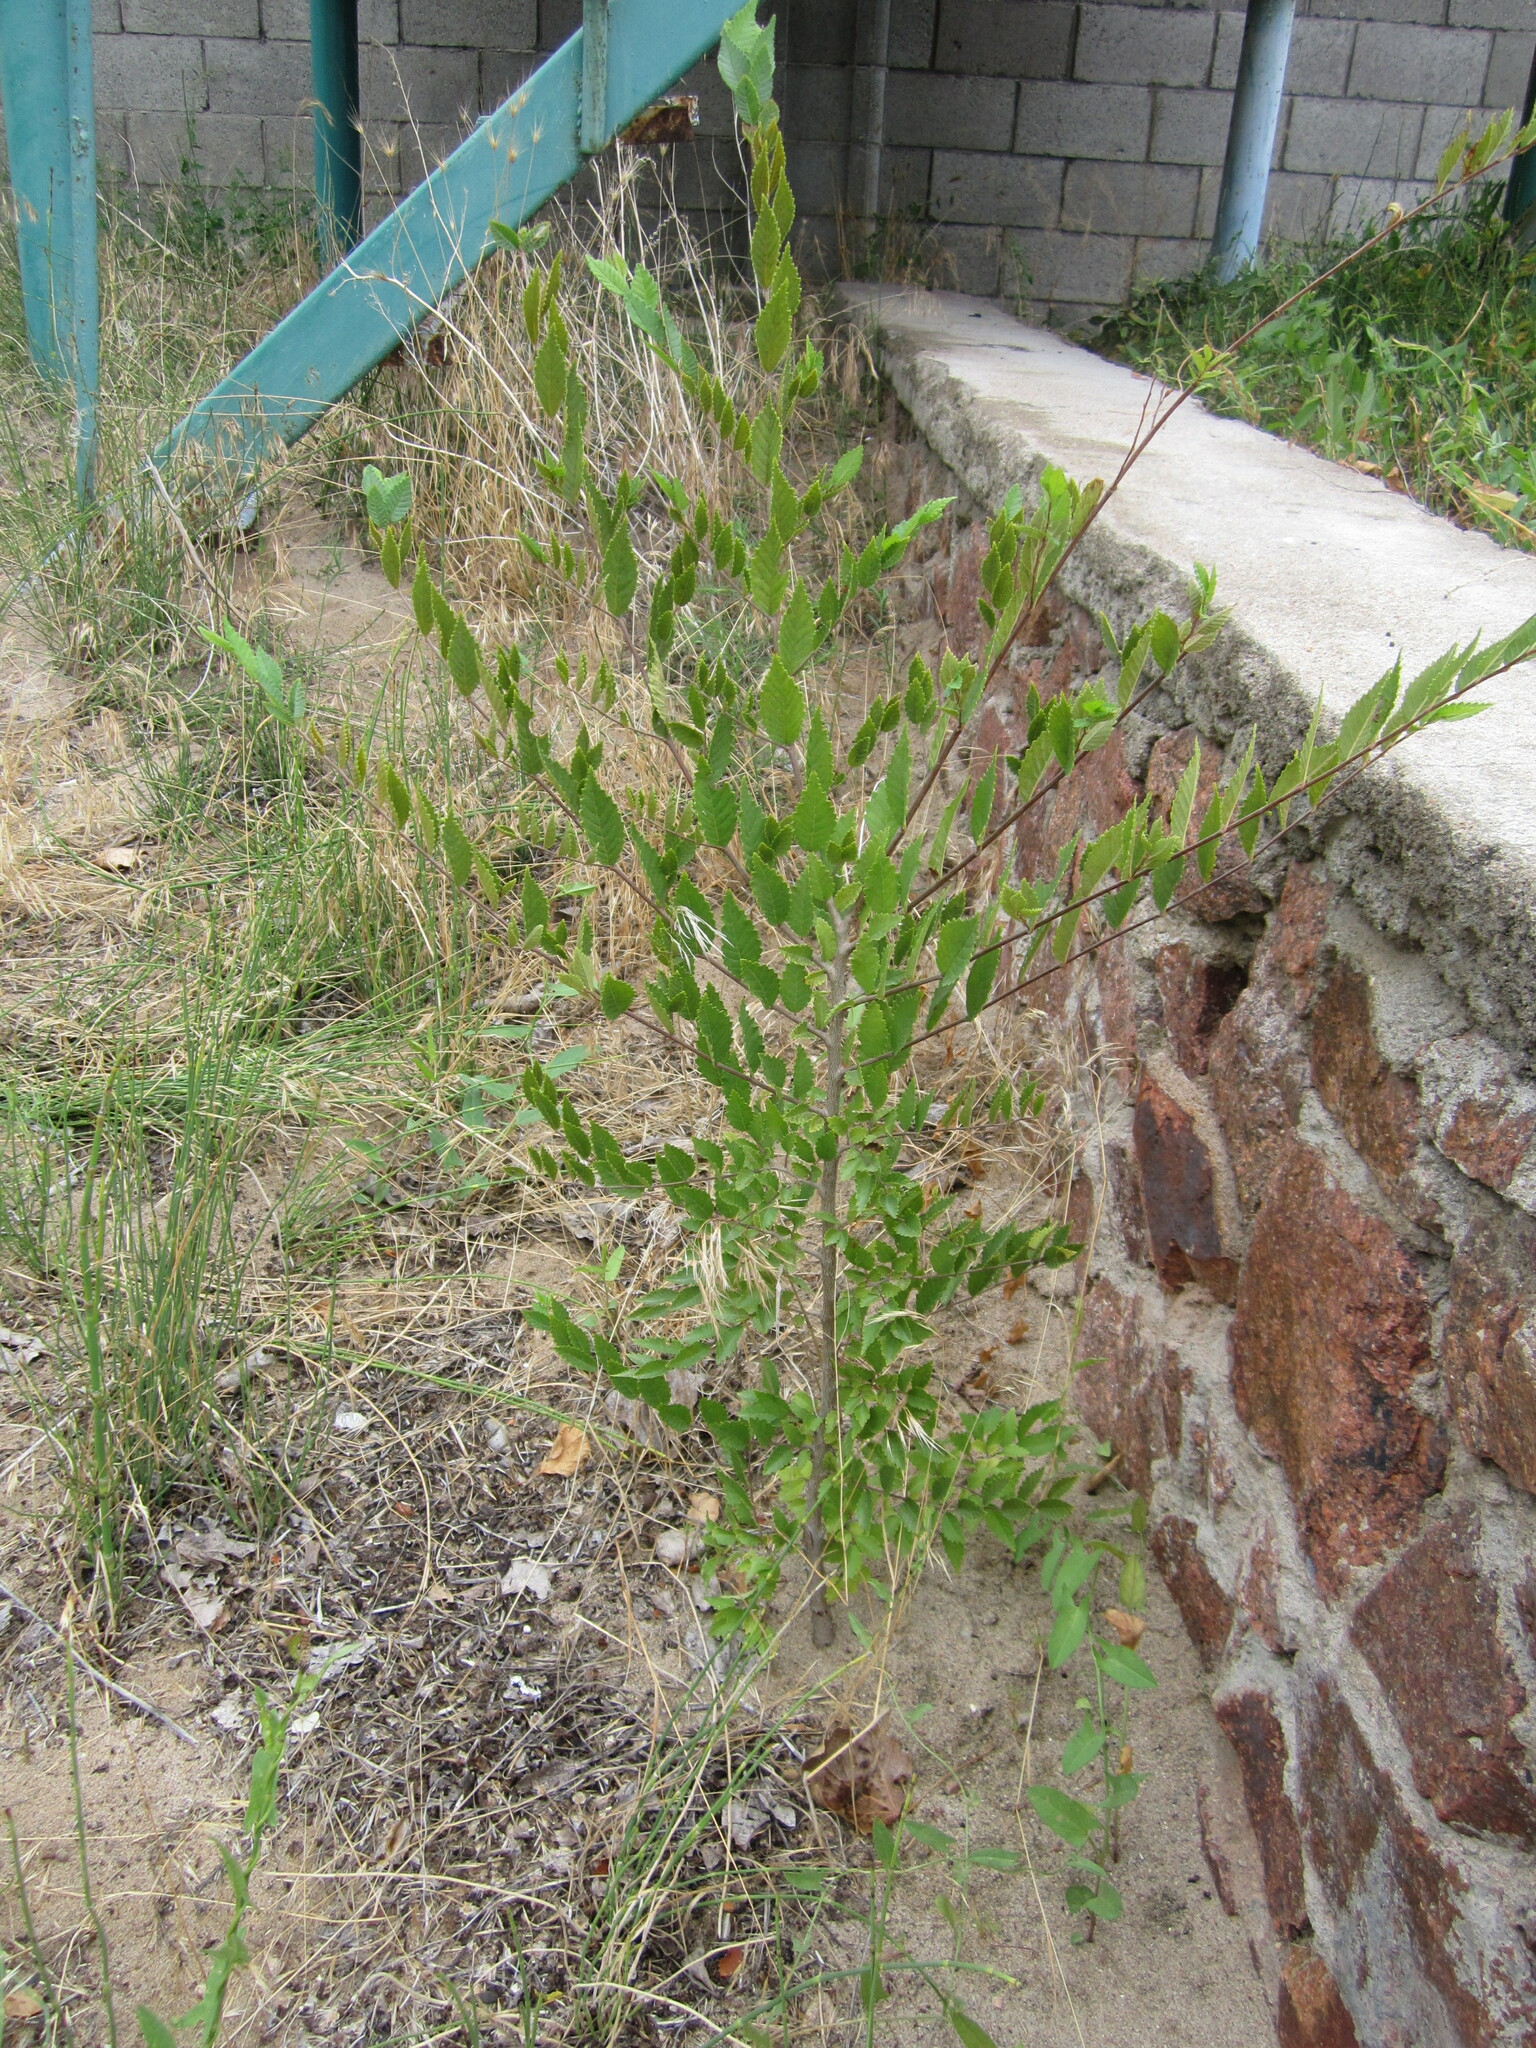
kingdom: Plantae
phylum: Tracheophyta
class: Magnoliopsida
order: Rosales
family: Ulmaceae
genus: Ulmus
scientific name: Ulmus pumila
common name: Siberian elm
